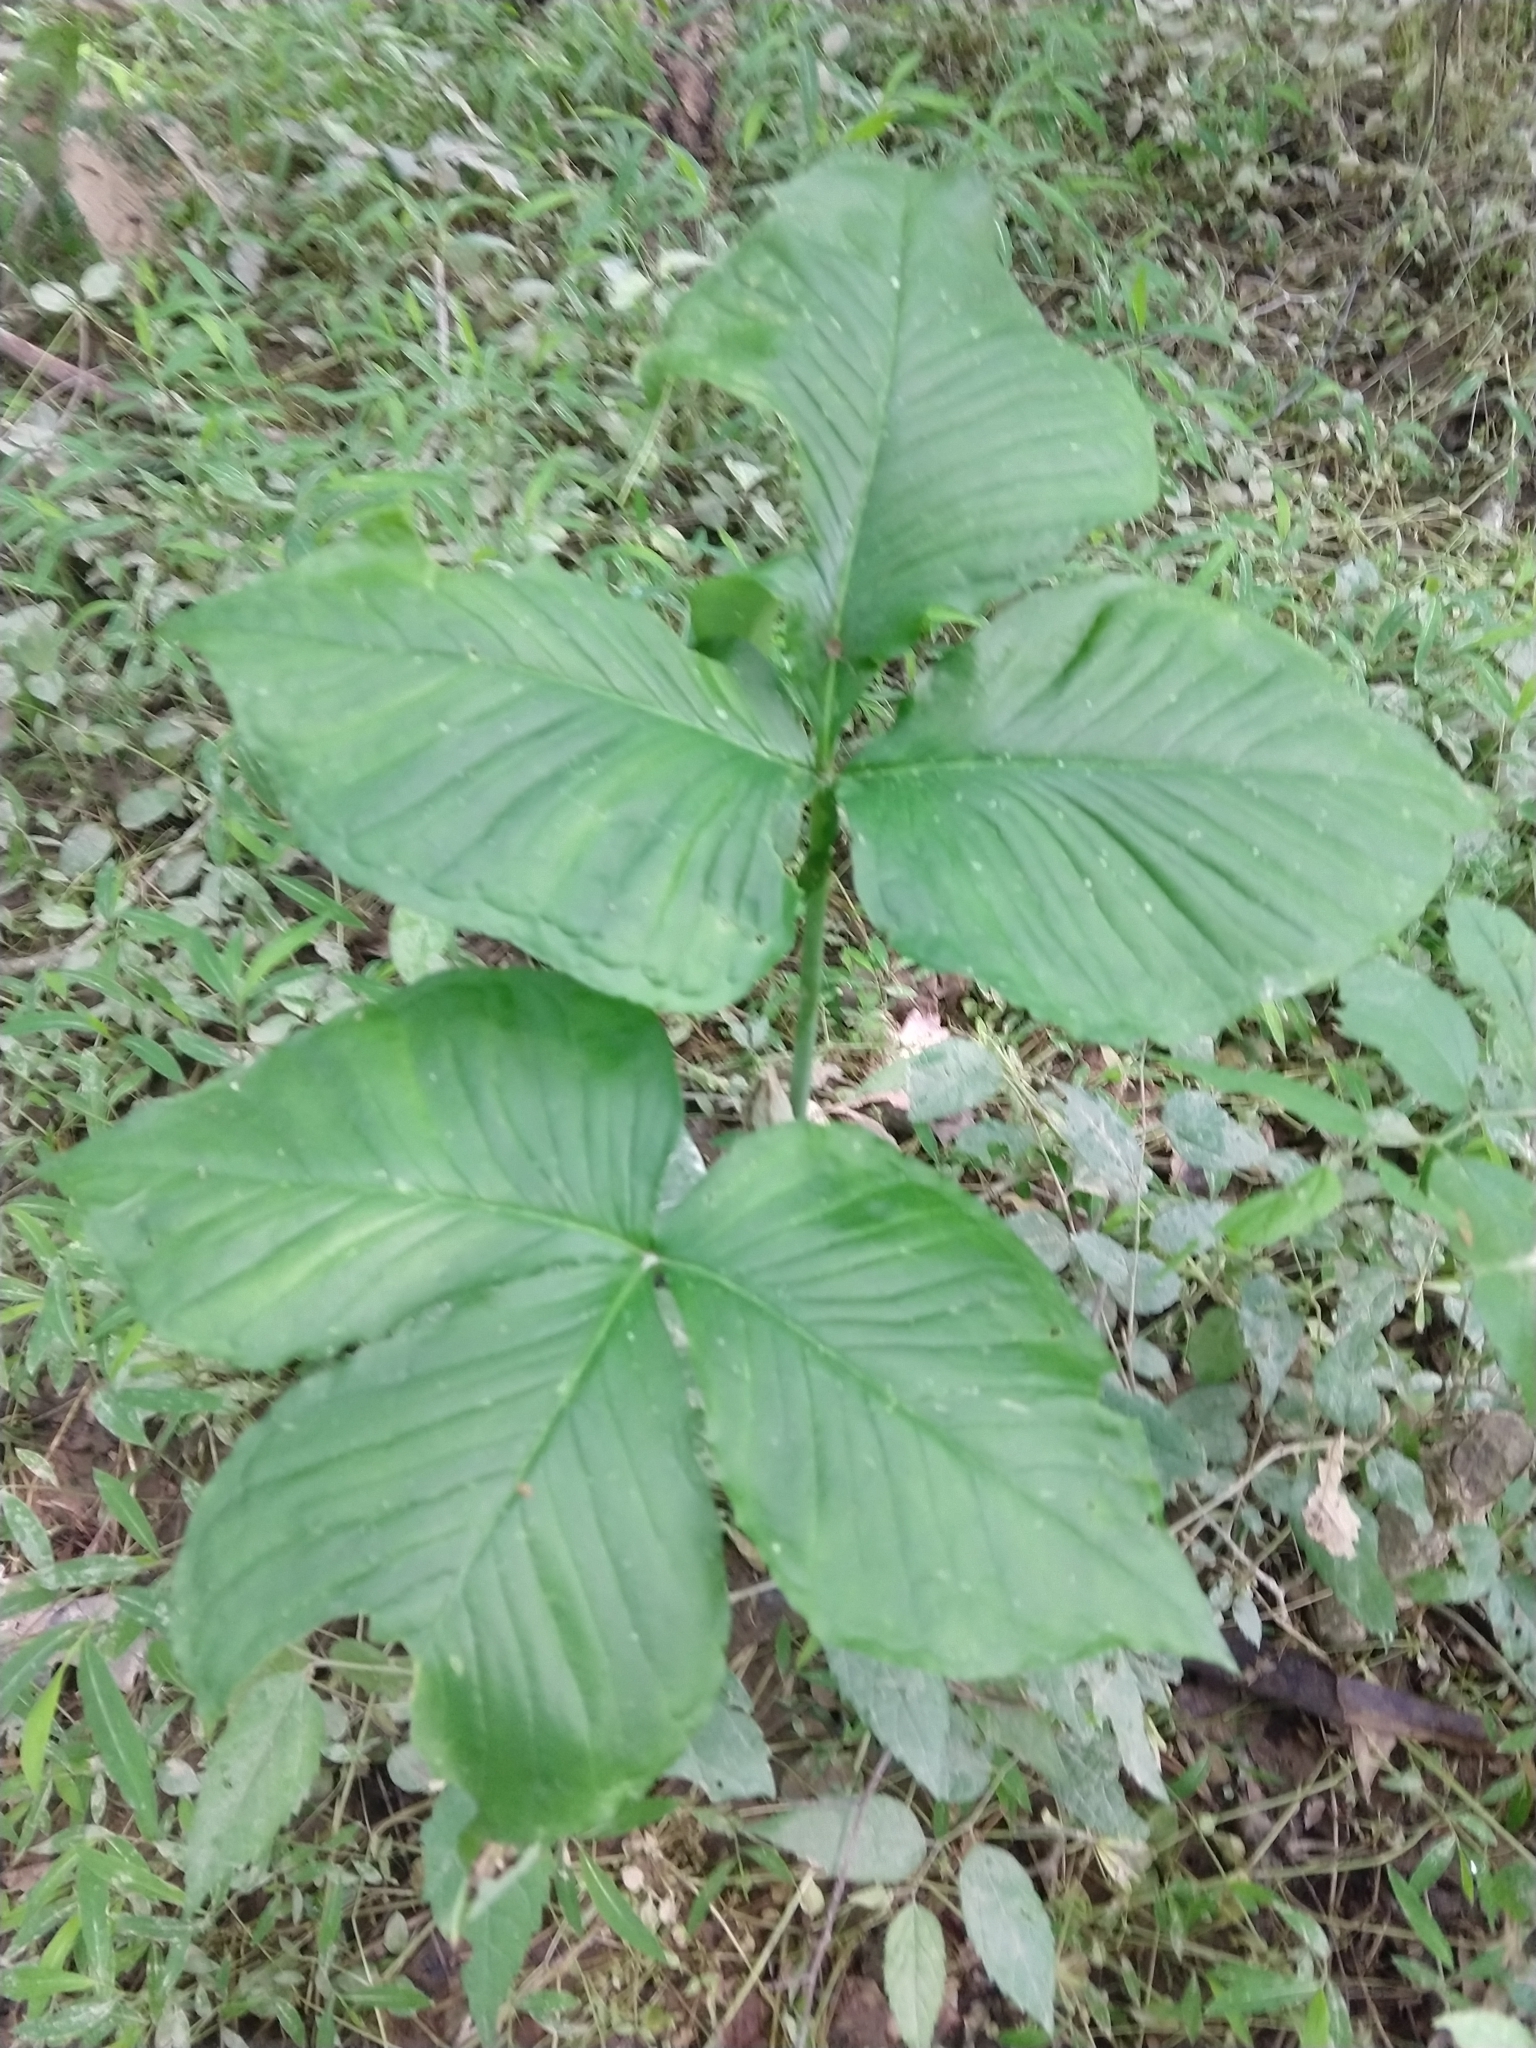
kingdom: Plantae
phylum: Tracheophyta
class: Liliopsida
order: Alismatales
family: Araceae
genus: Arisaema
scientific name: Arisaema triphyllum
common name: Jack-in-the-pulpit
